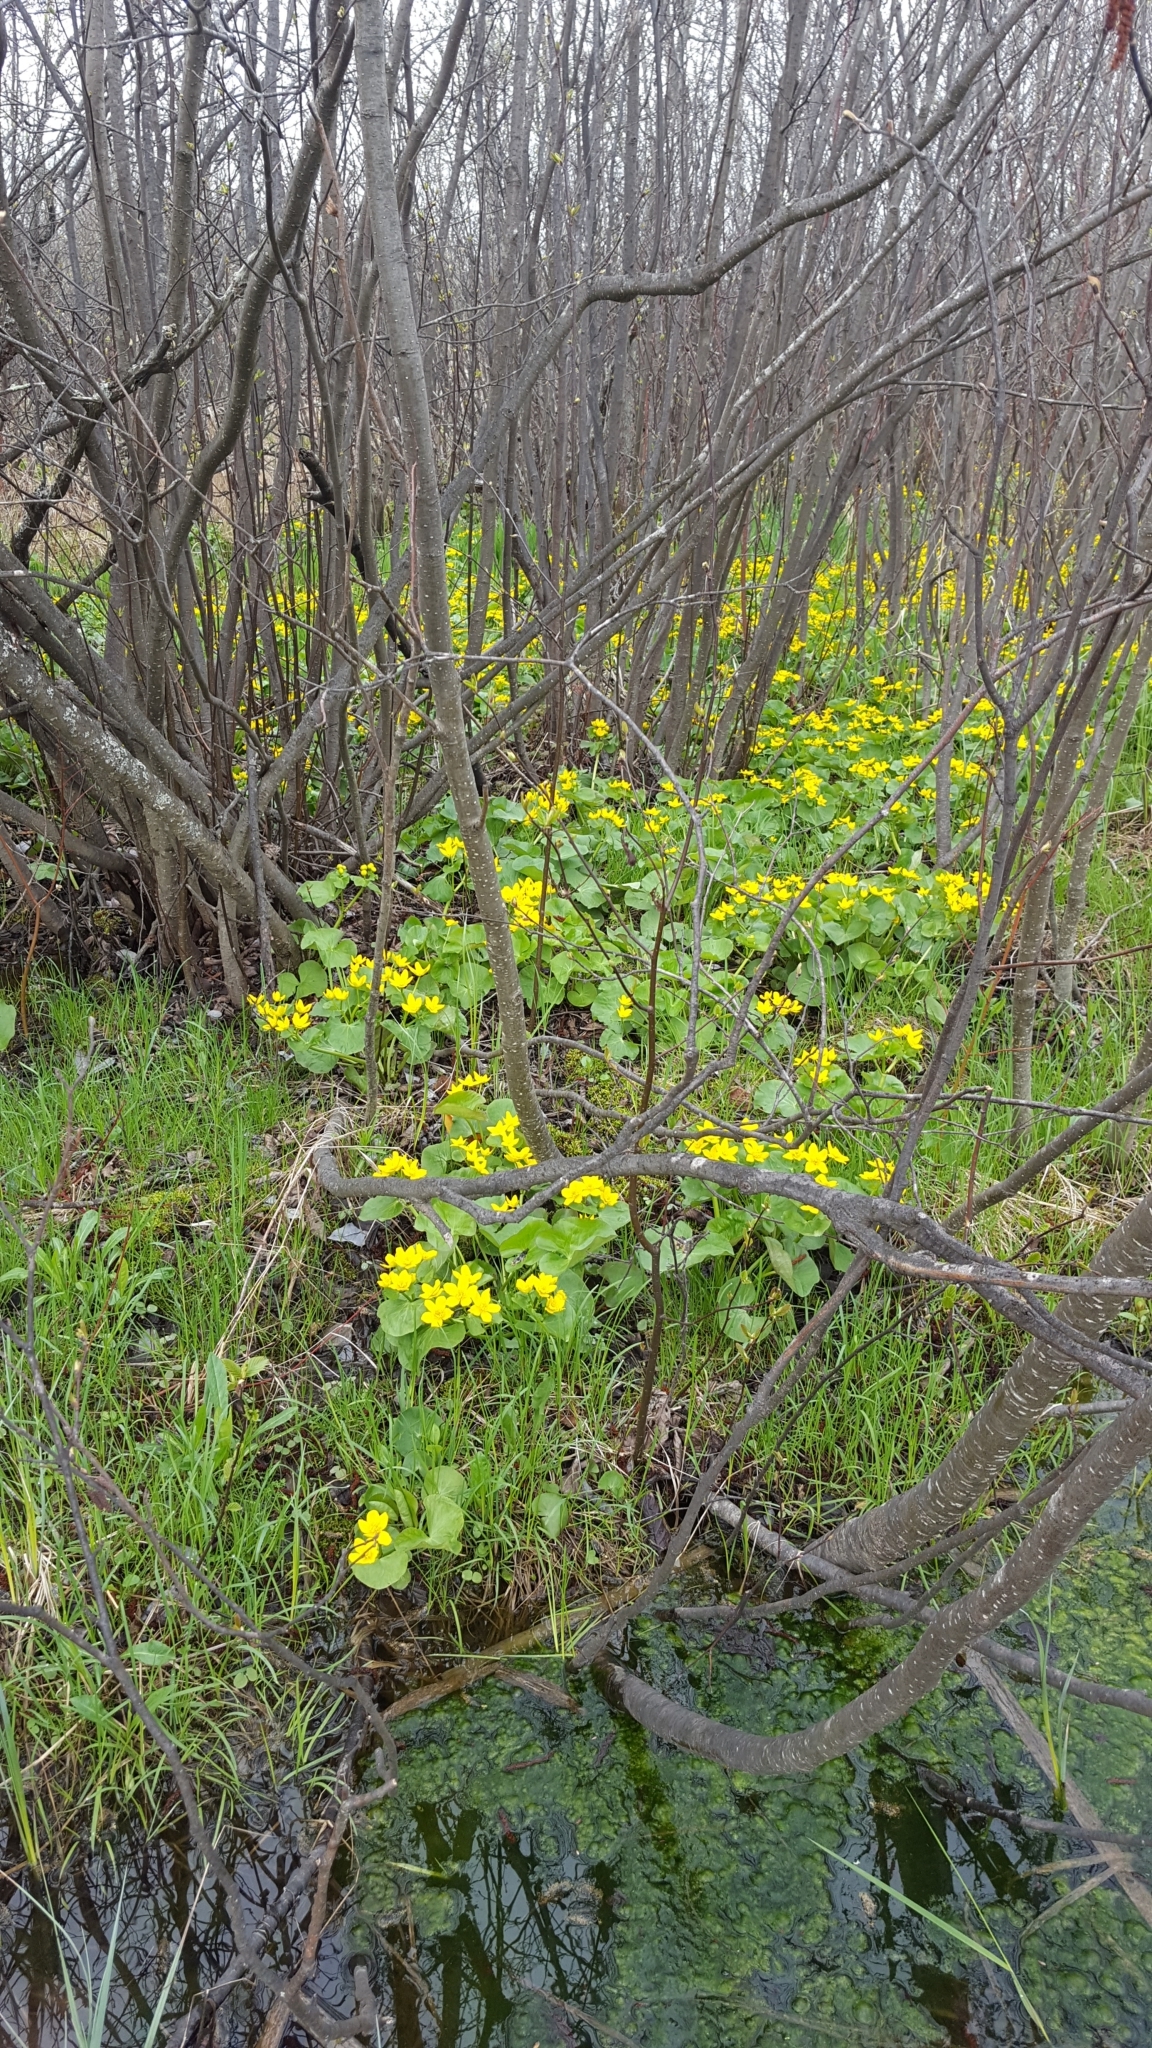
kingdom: Plantae
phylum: Tracheophyta
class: Magnoliopsida
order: Ranunculales
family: Ranunculaceae
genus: Caltha
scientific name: Caltha palustris
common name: Marsh marigold
